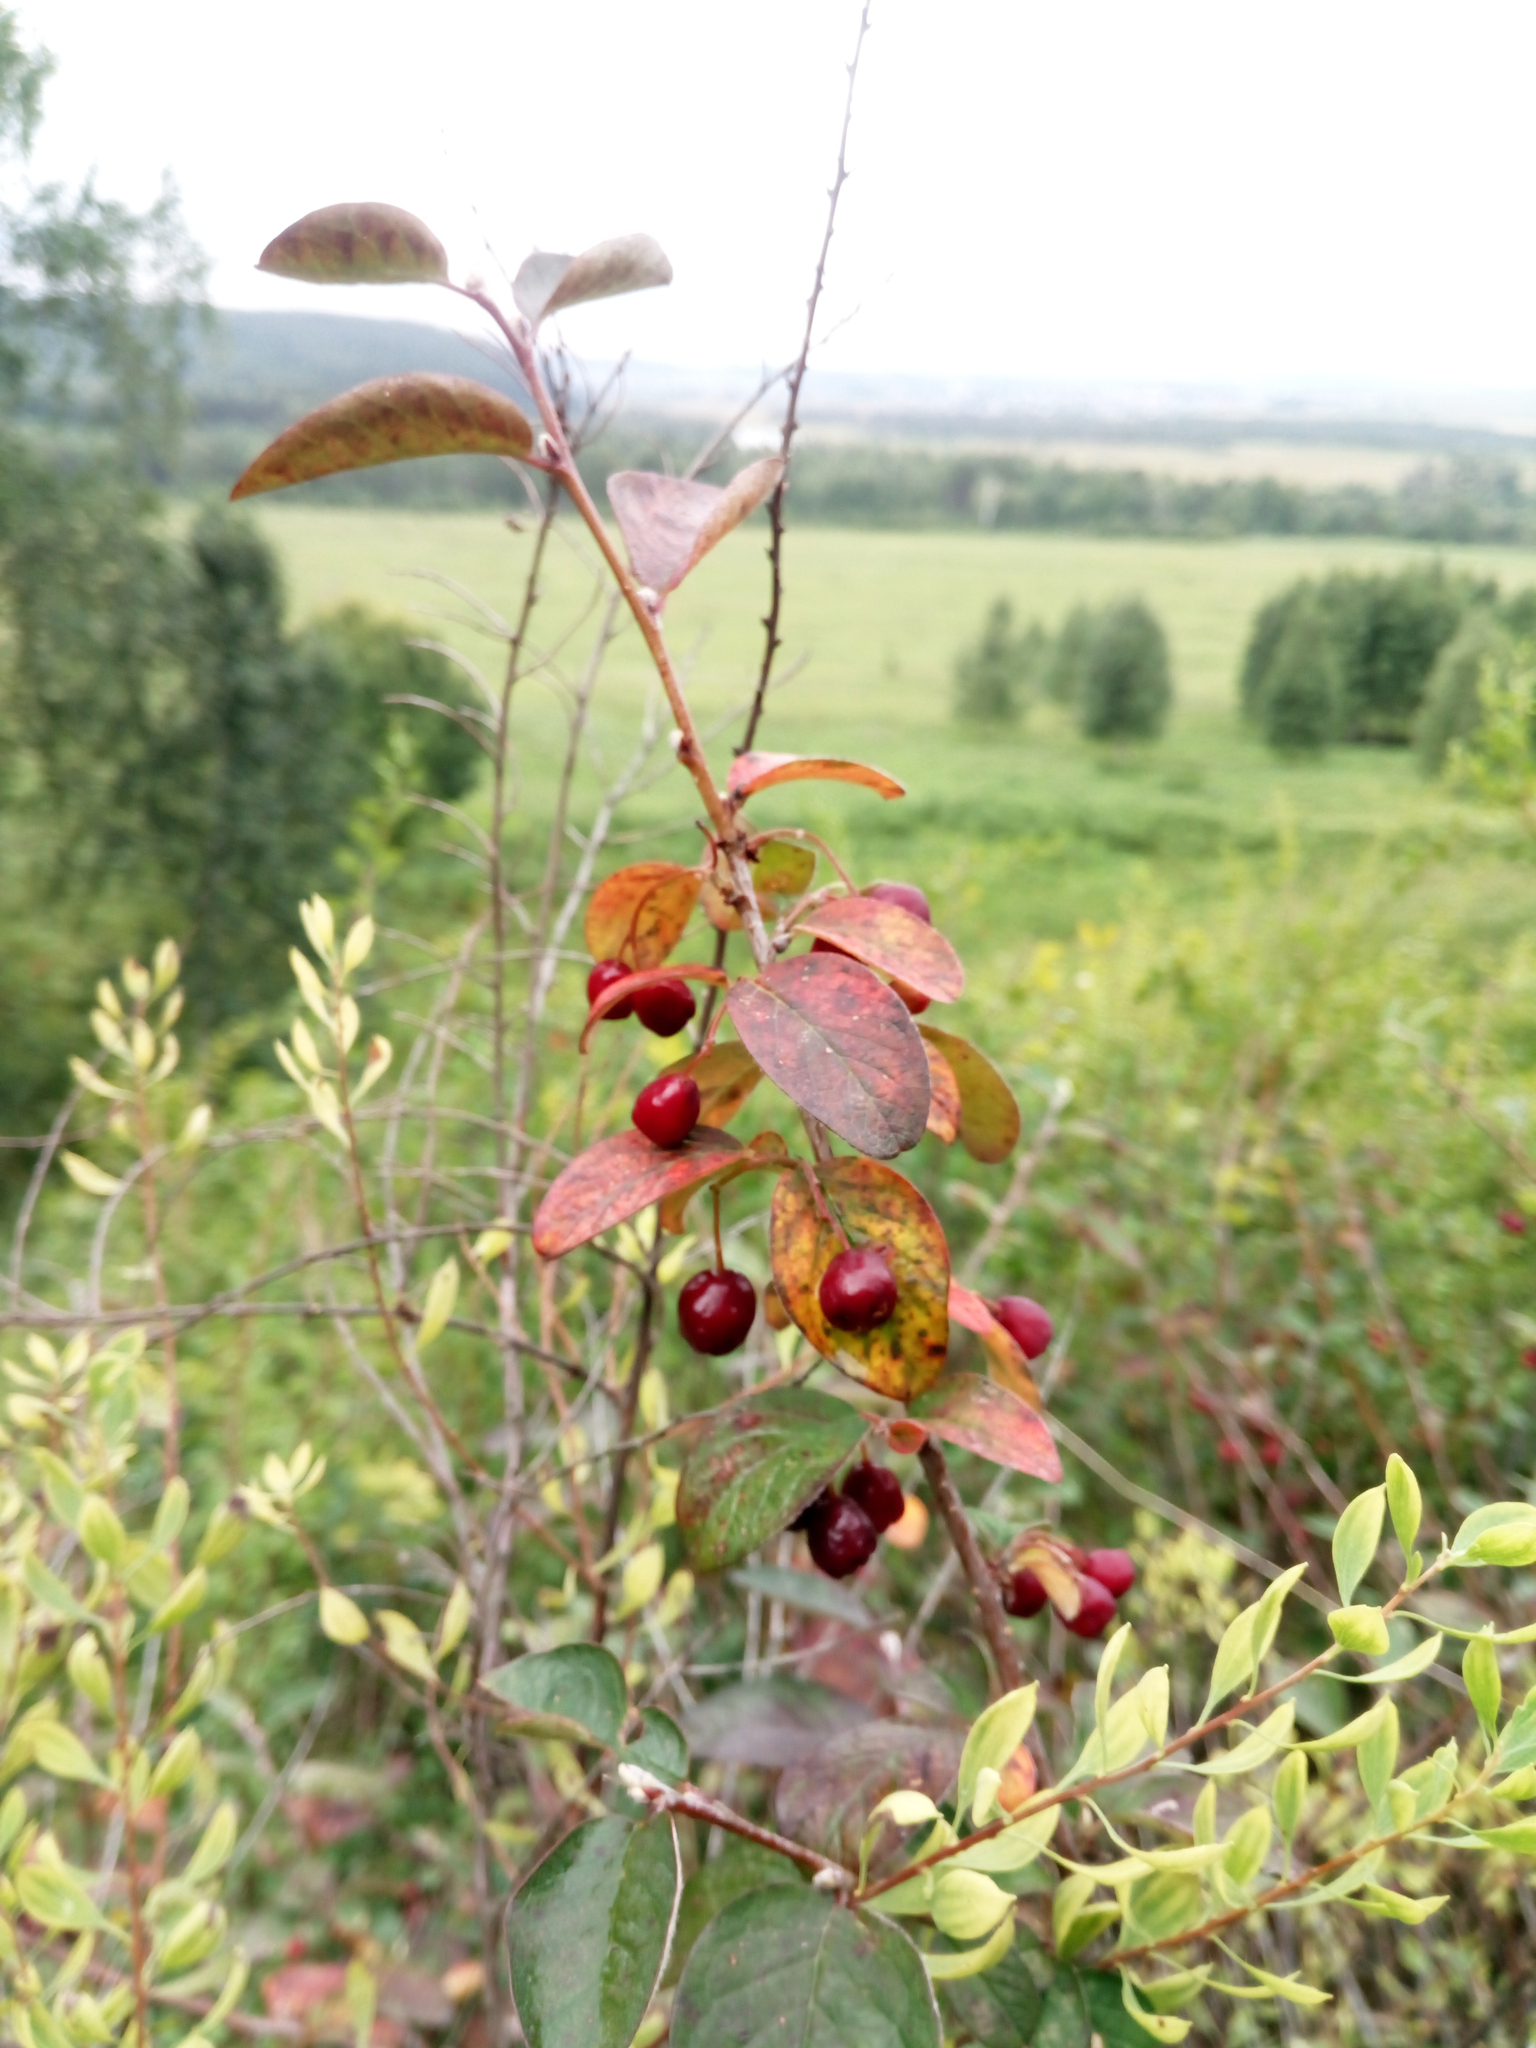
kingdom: Plantae
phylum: Tracheophyta
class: Magnoliopsida
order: Rosales
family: Rosaceae
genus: Cotoneaster
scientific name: Cotoneaster melanocarpus
